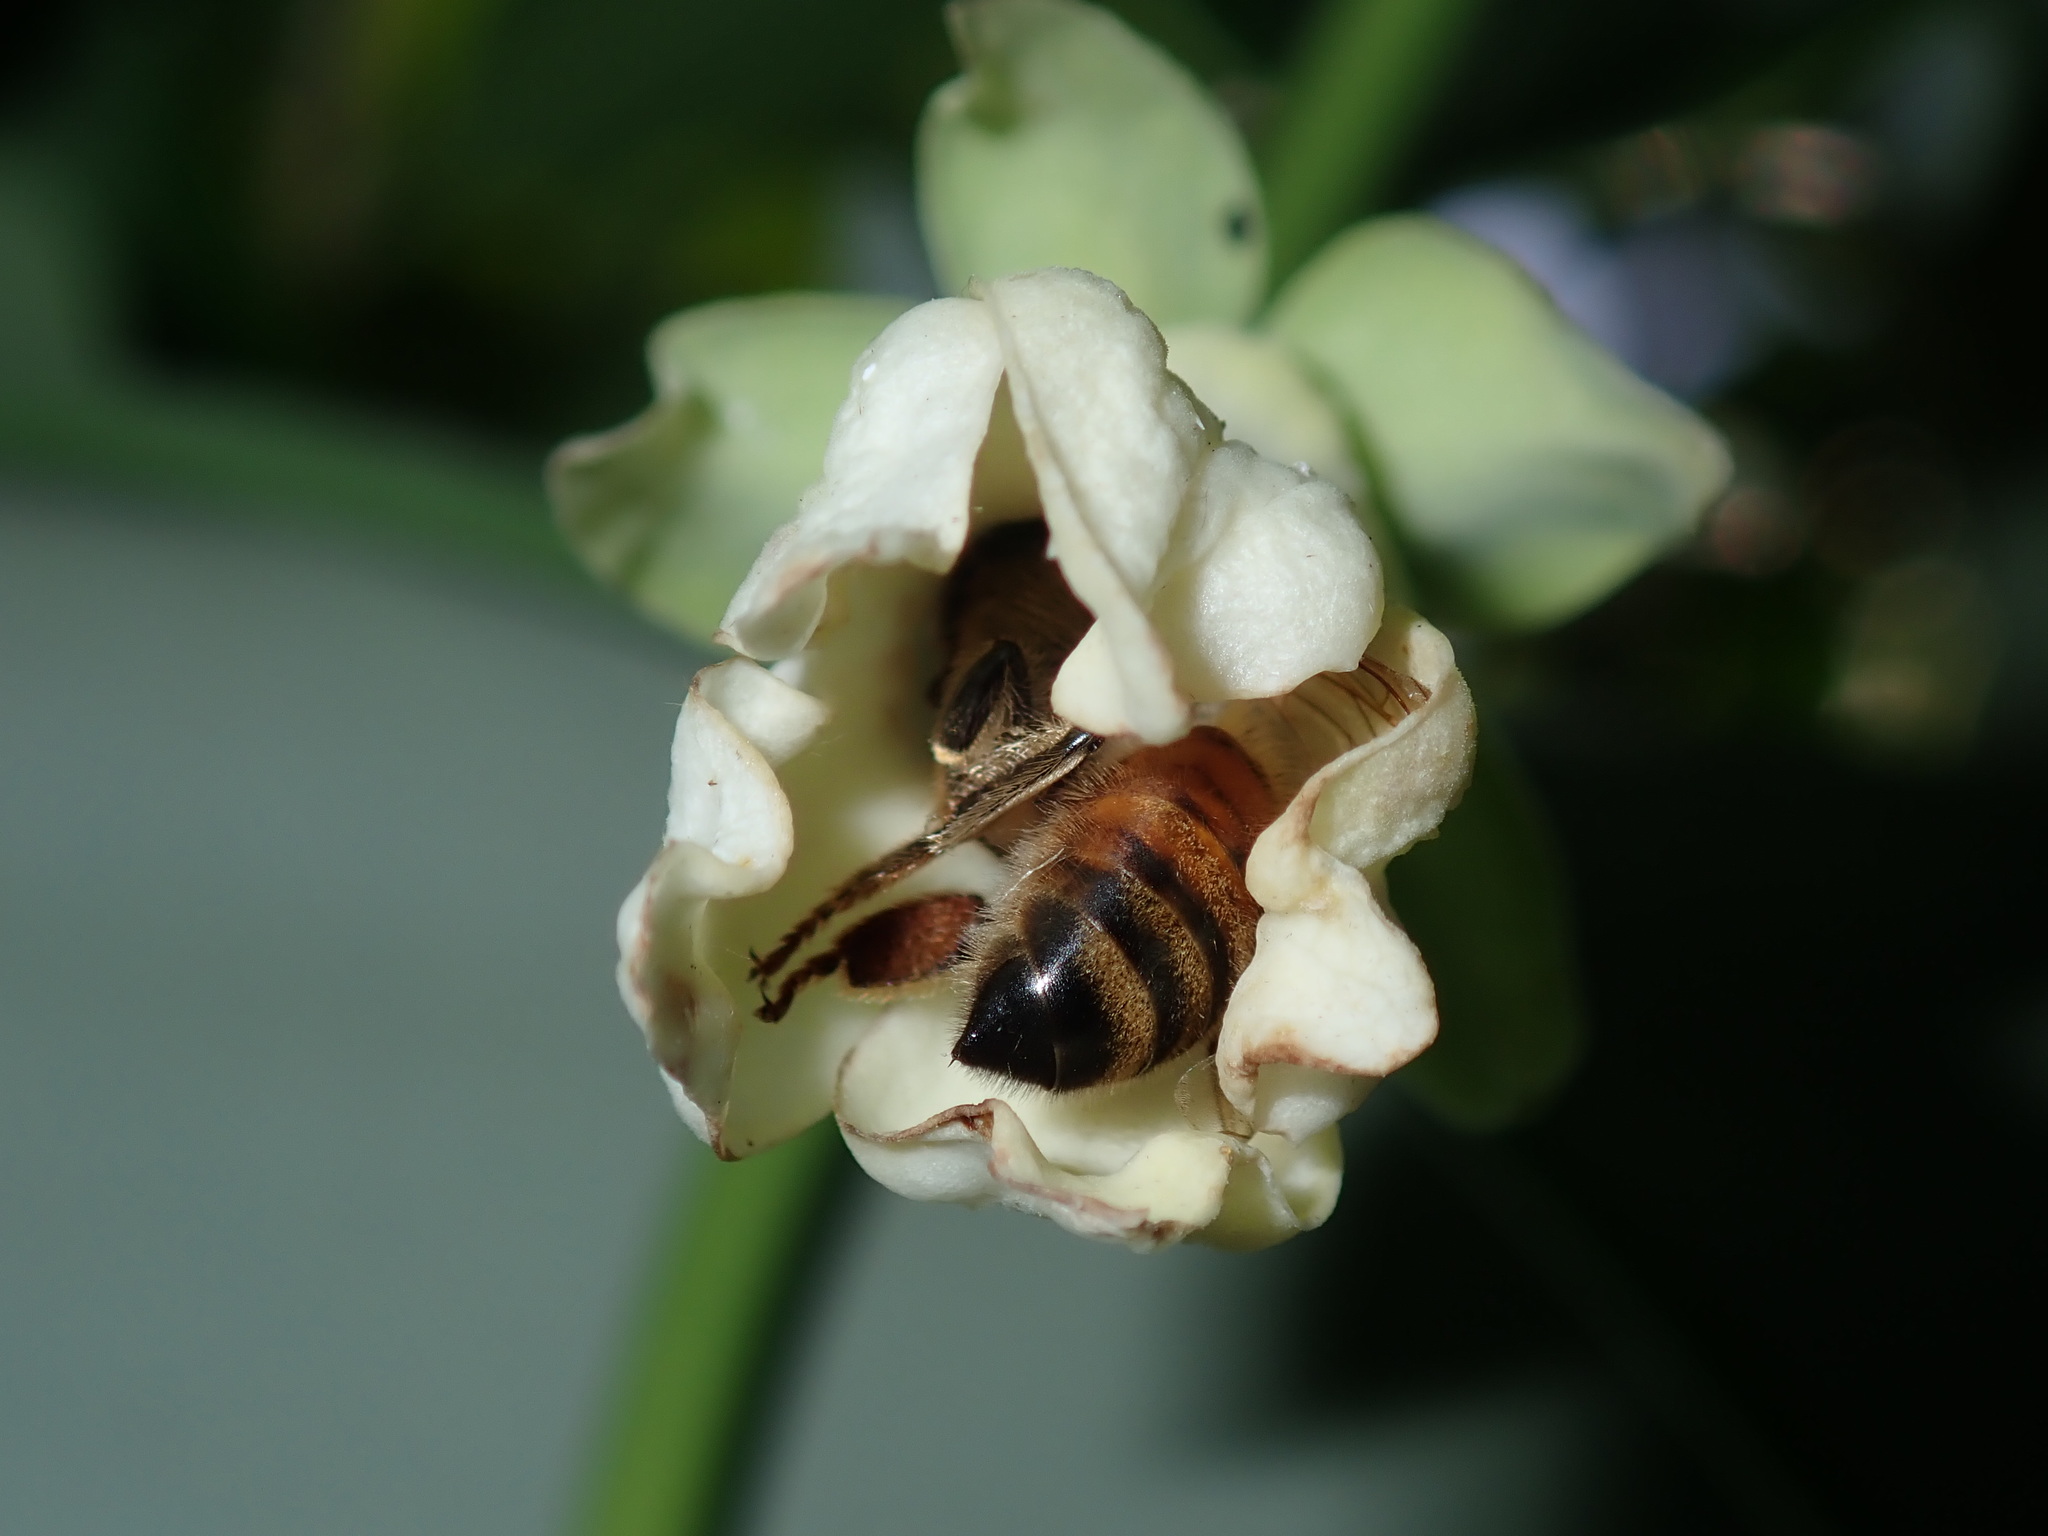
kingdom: Animalia
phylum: Arthropoda
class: Insecta
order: Hymenoptera
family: Apidae
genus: Apis
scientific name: Apis mellifera
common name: Honey bee
